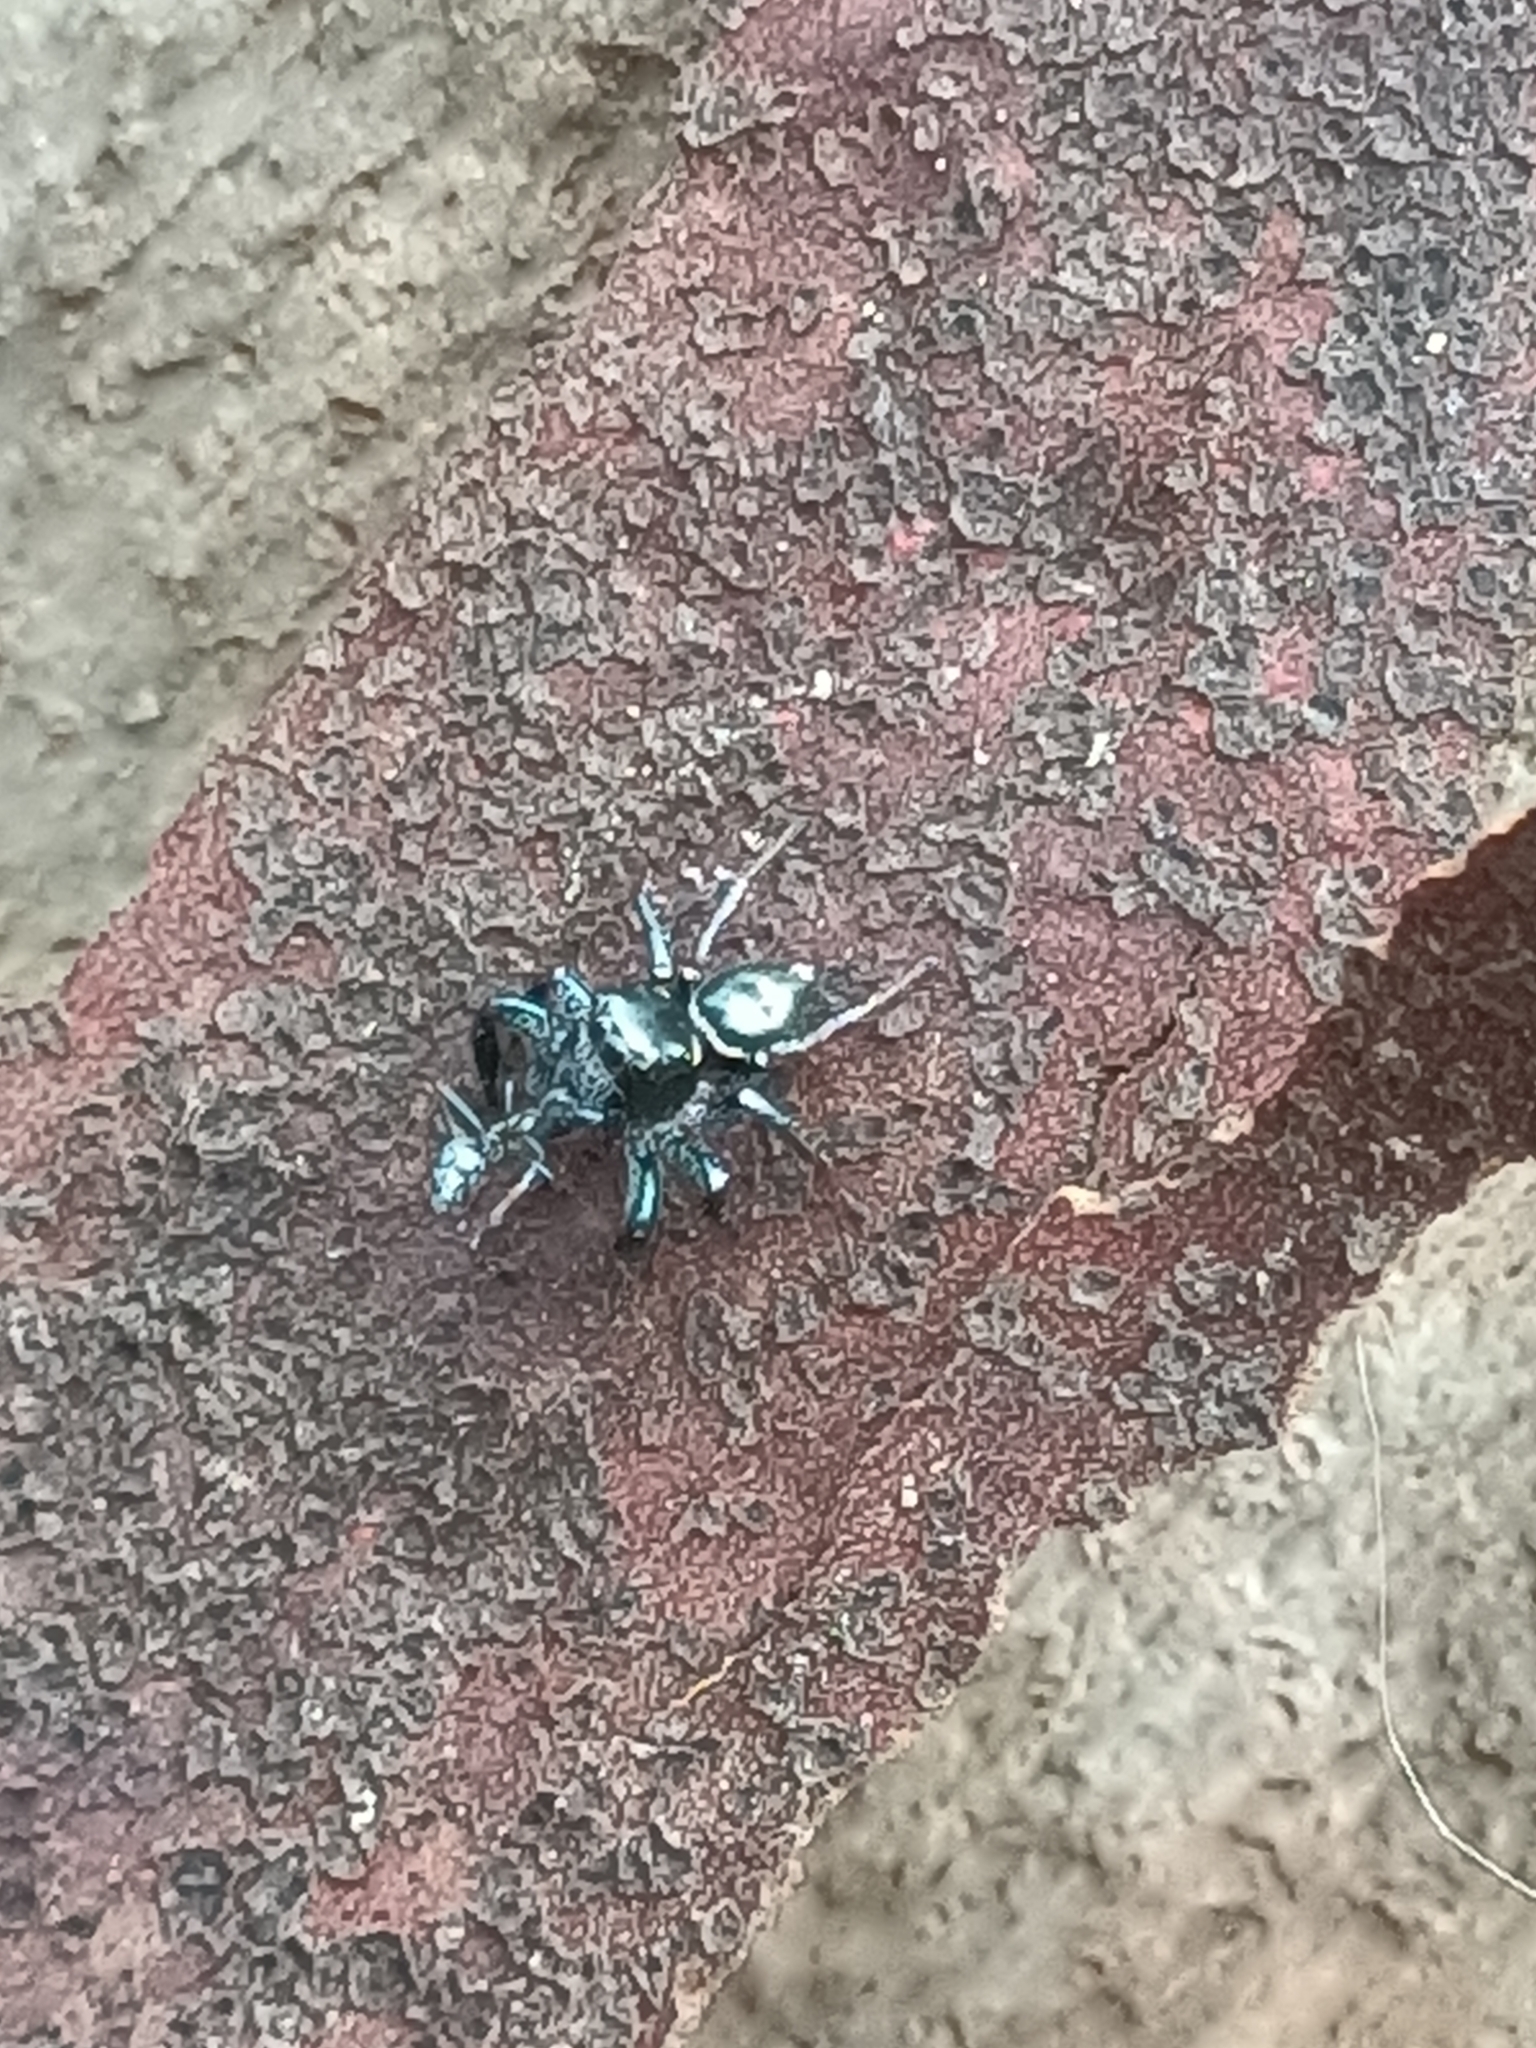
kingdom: Animalia
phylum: Arthropoda
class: Arachnida
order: Araneae
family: Salticidae
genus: Zenodorus
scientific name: Zenodorus orbiculatus
